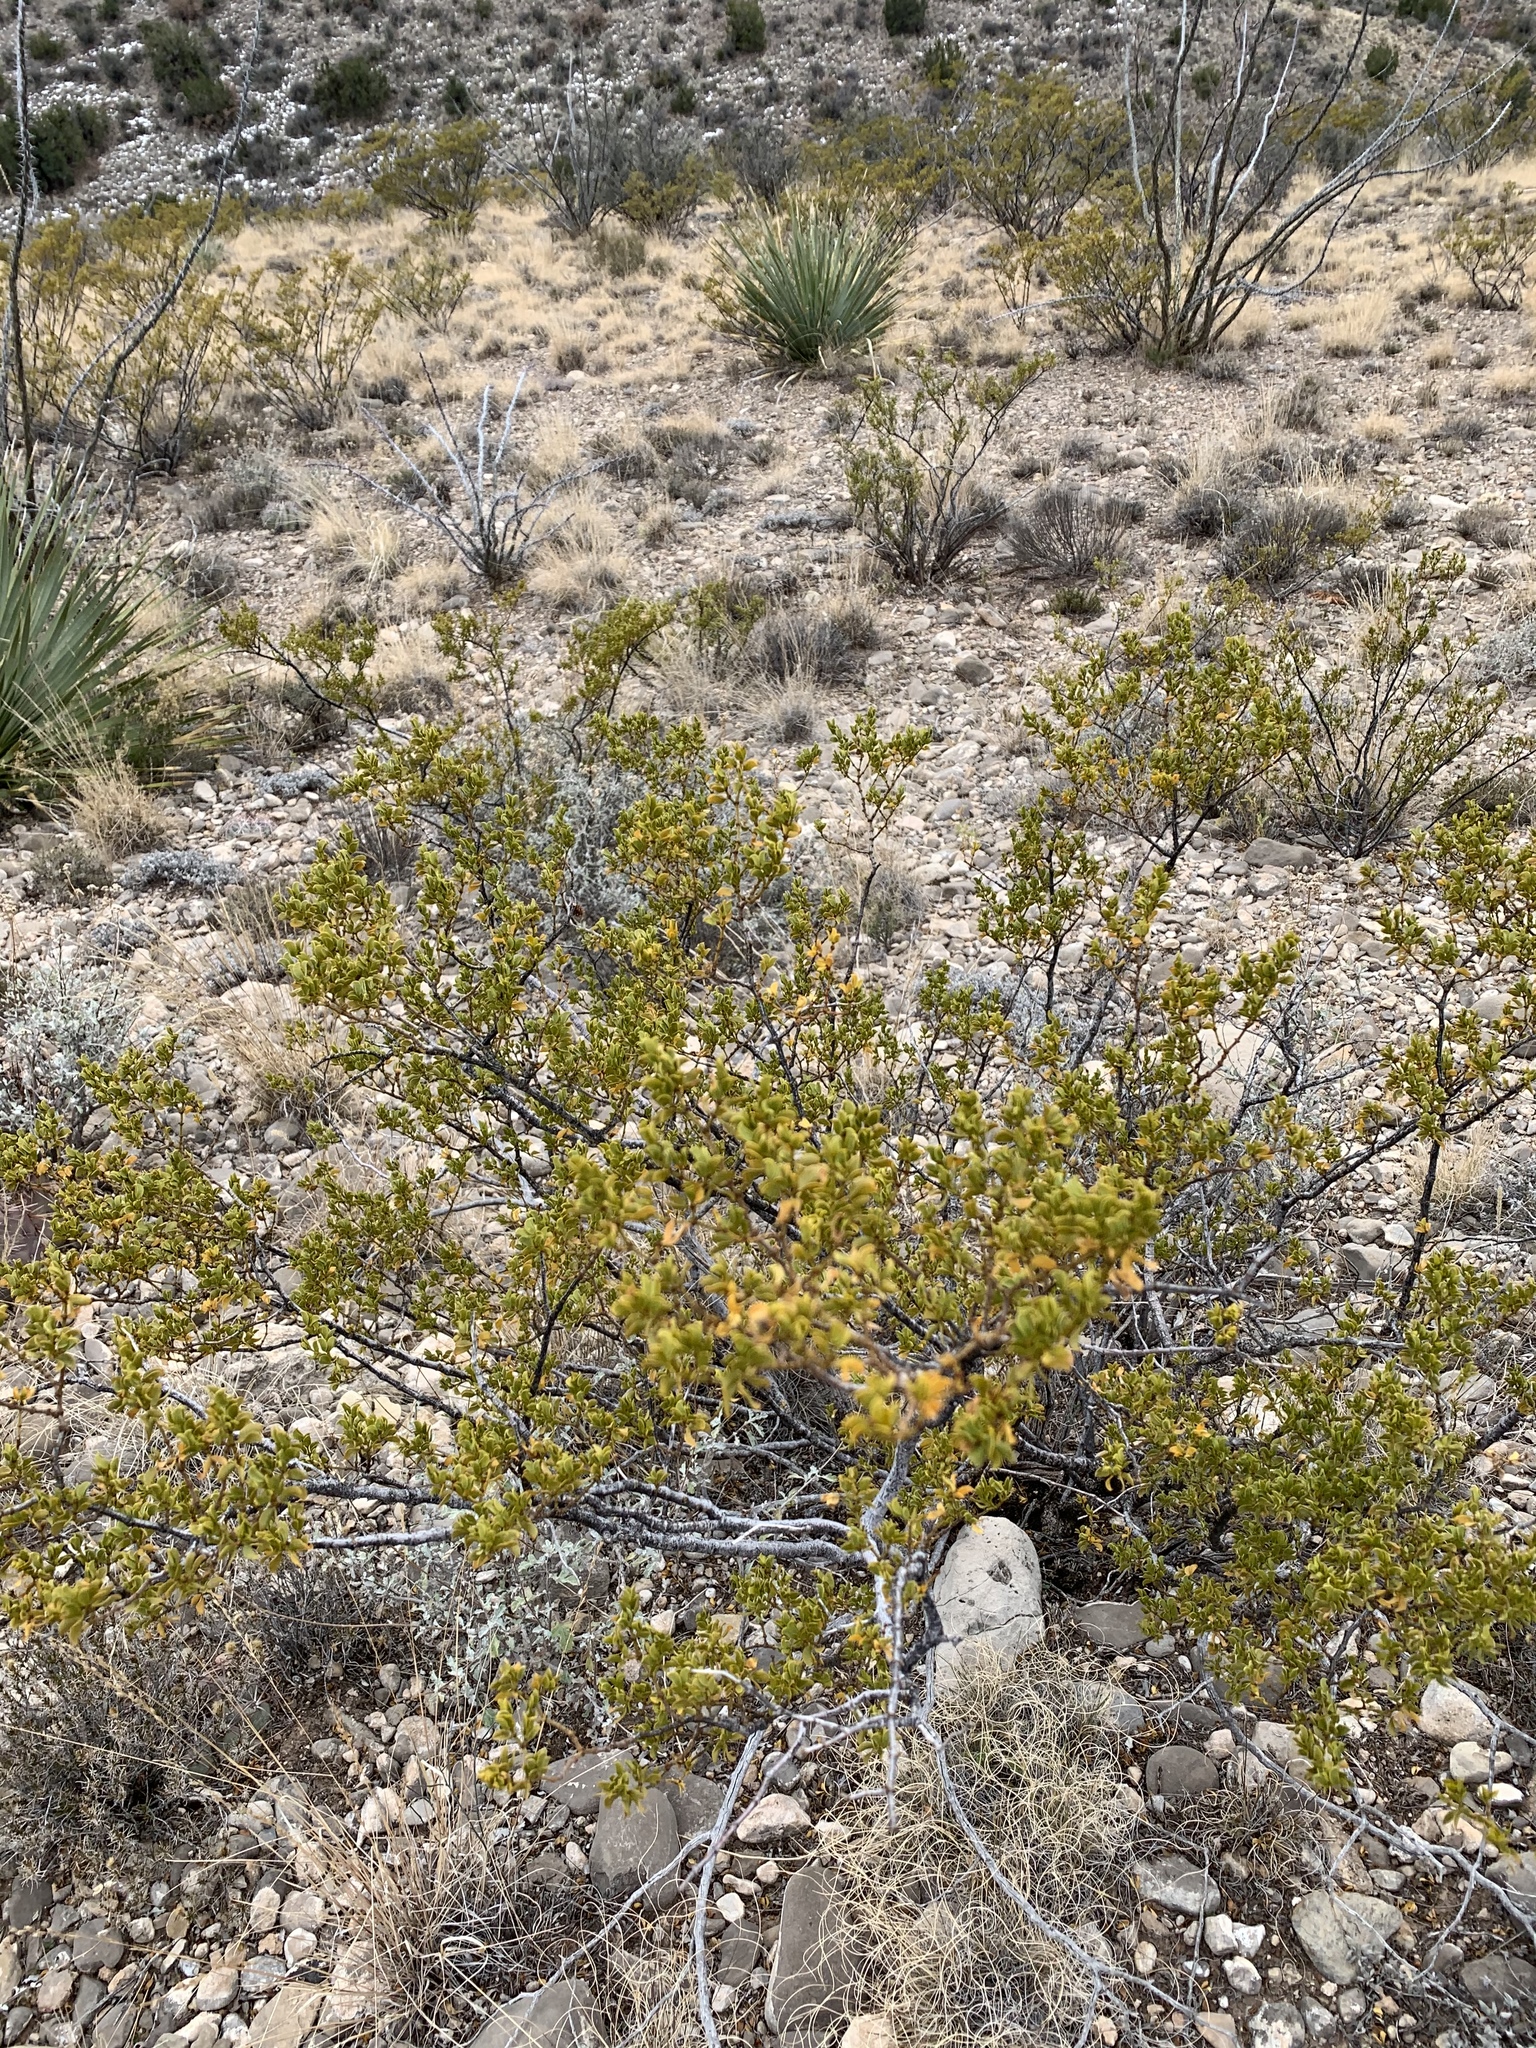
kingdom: Plantae
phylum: Tracheophyta
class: Magnoliopsida
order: Zygophyllales
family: Zygophyllaceae
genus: Larrea
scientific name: Larrea tridentata
